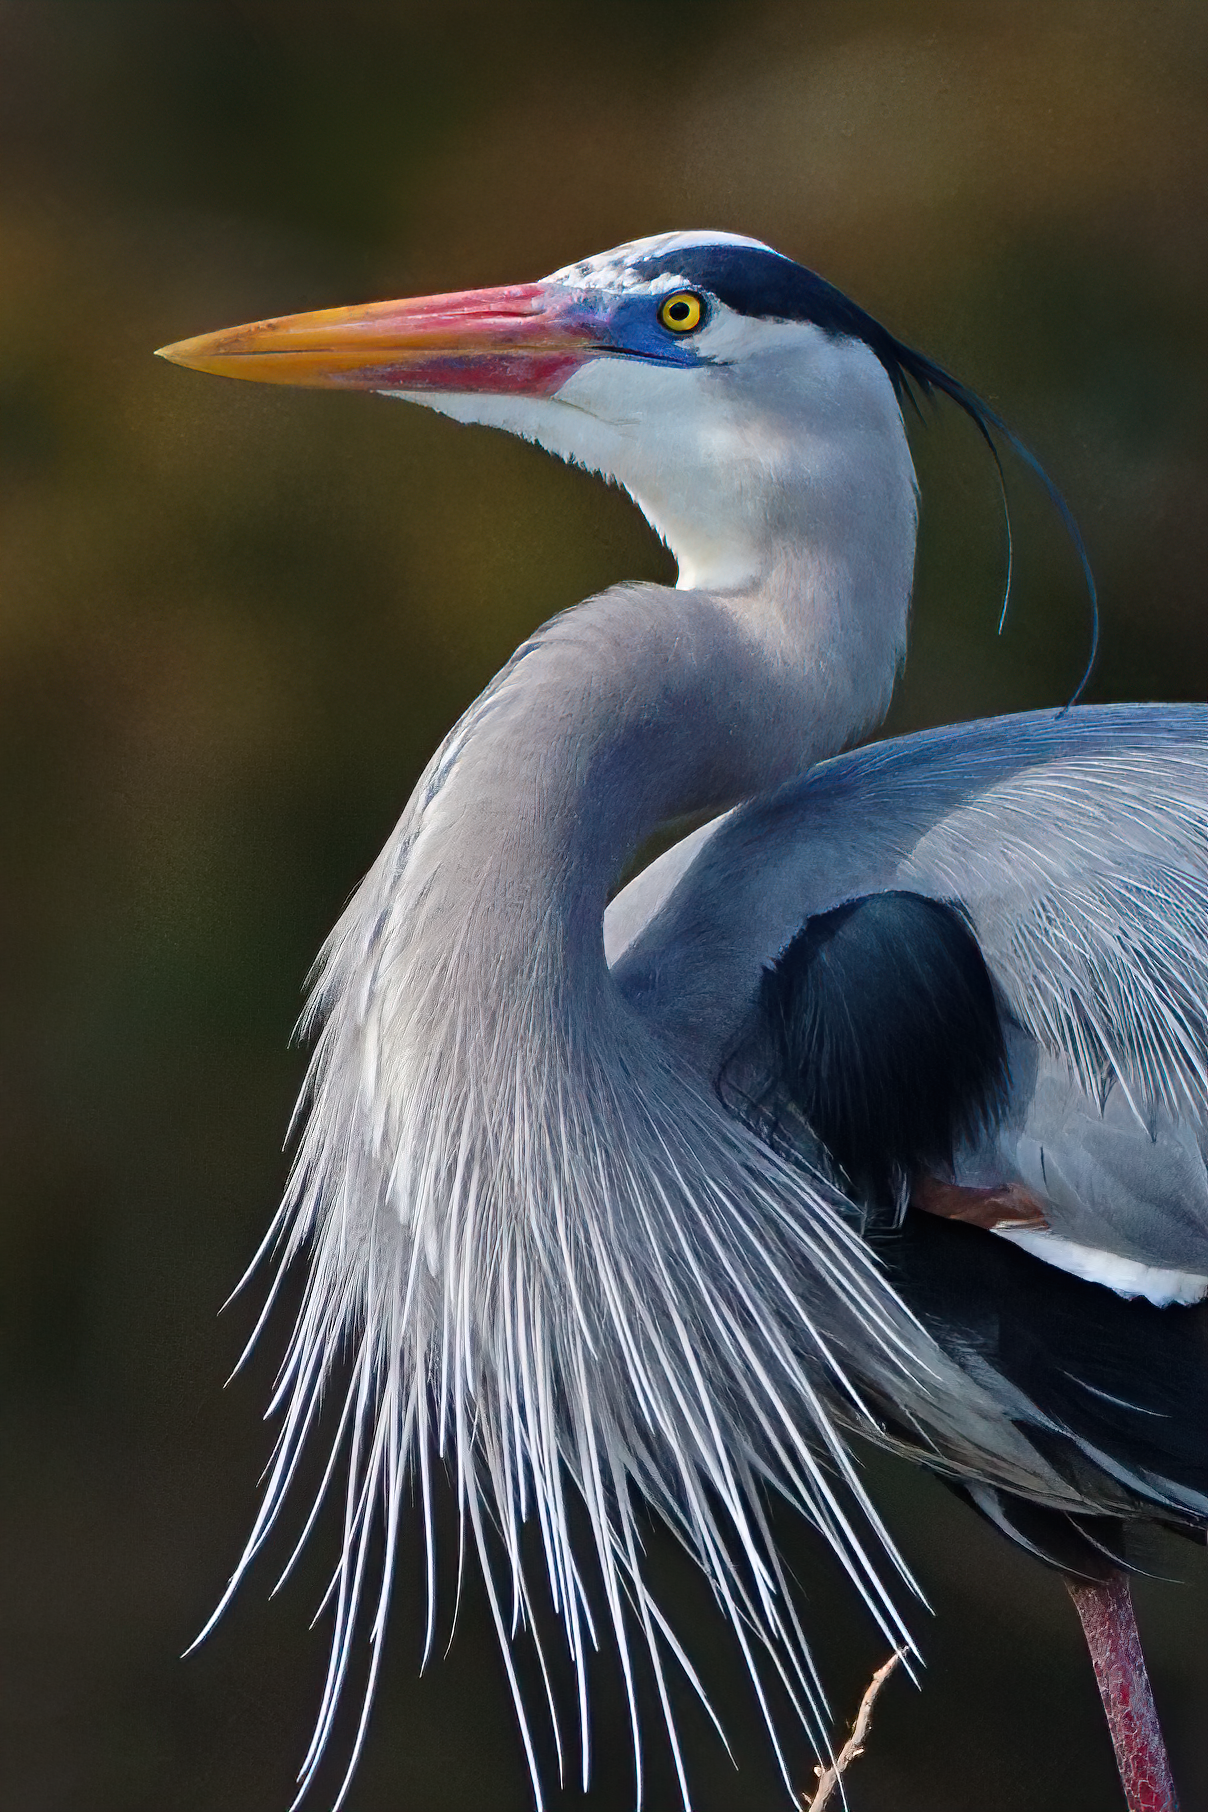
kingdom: Animalia
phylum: Chordata
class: Aves
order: Pelecaniformes
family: Ardeidae
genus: Ardea
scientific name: Ardea herodias
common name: Great blue heron
